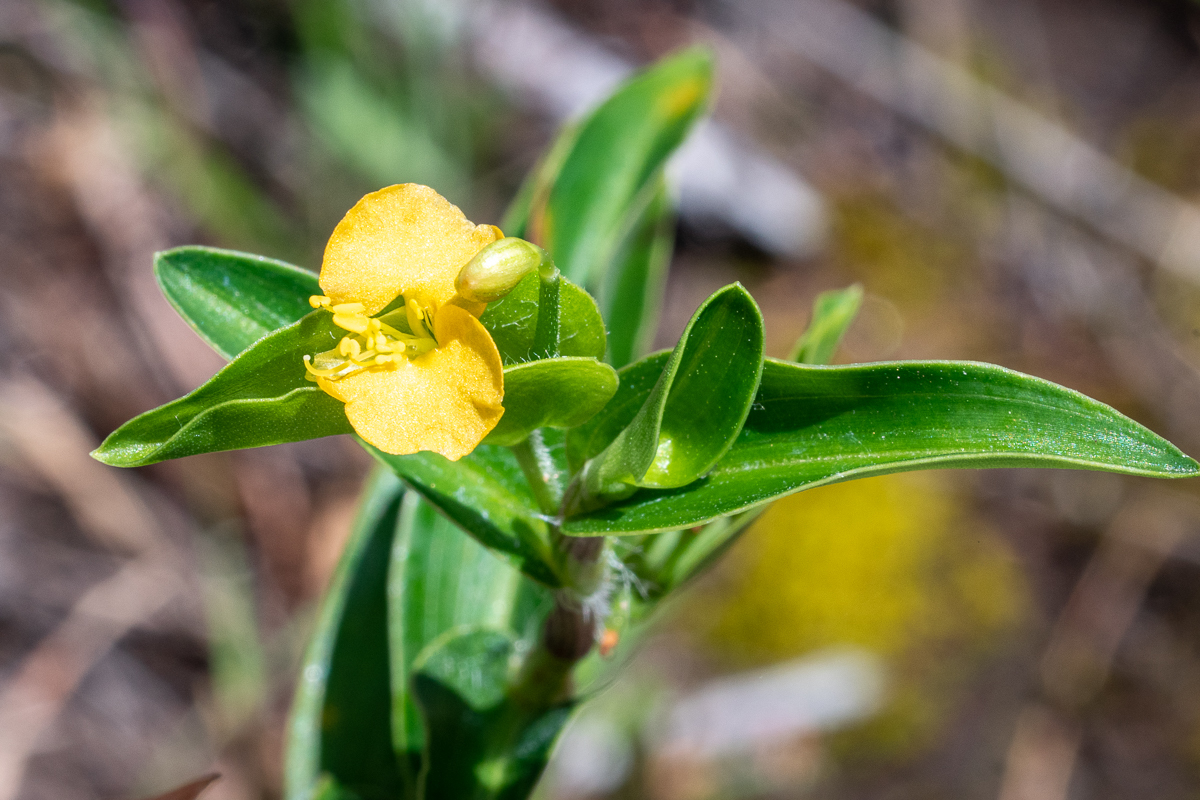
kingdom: Plantae
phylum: Tracheophyta
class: Liliopsida
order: Commelinales
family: Commelinaceae
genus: Commelina
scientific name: Commelina africana
